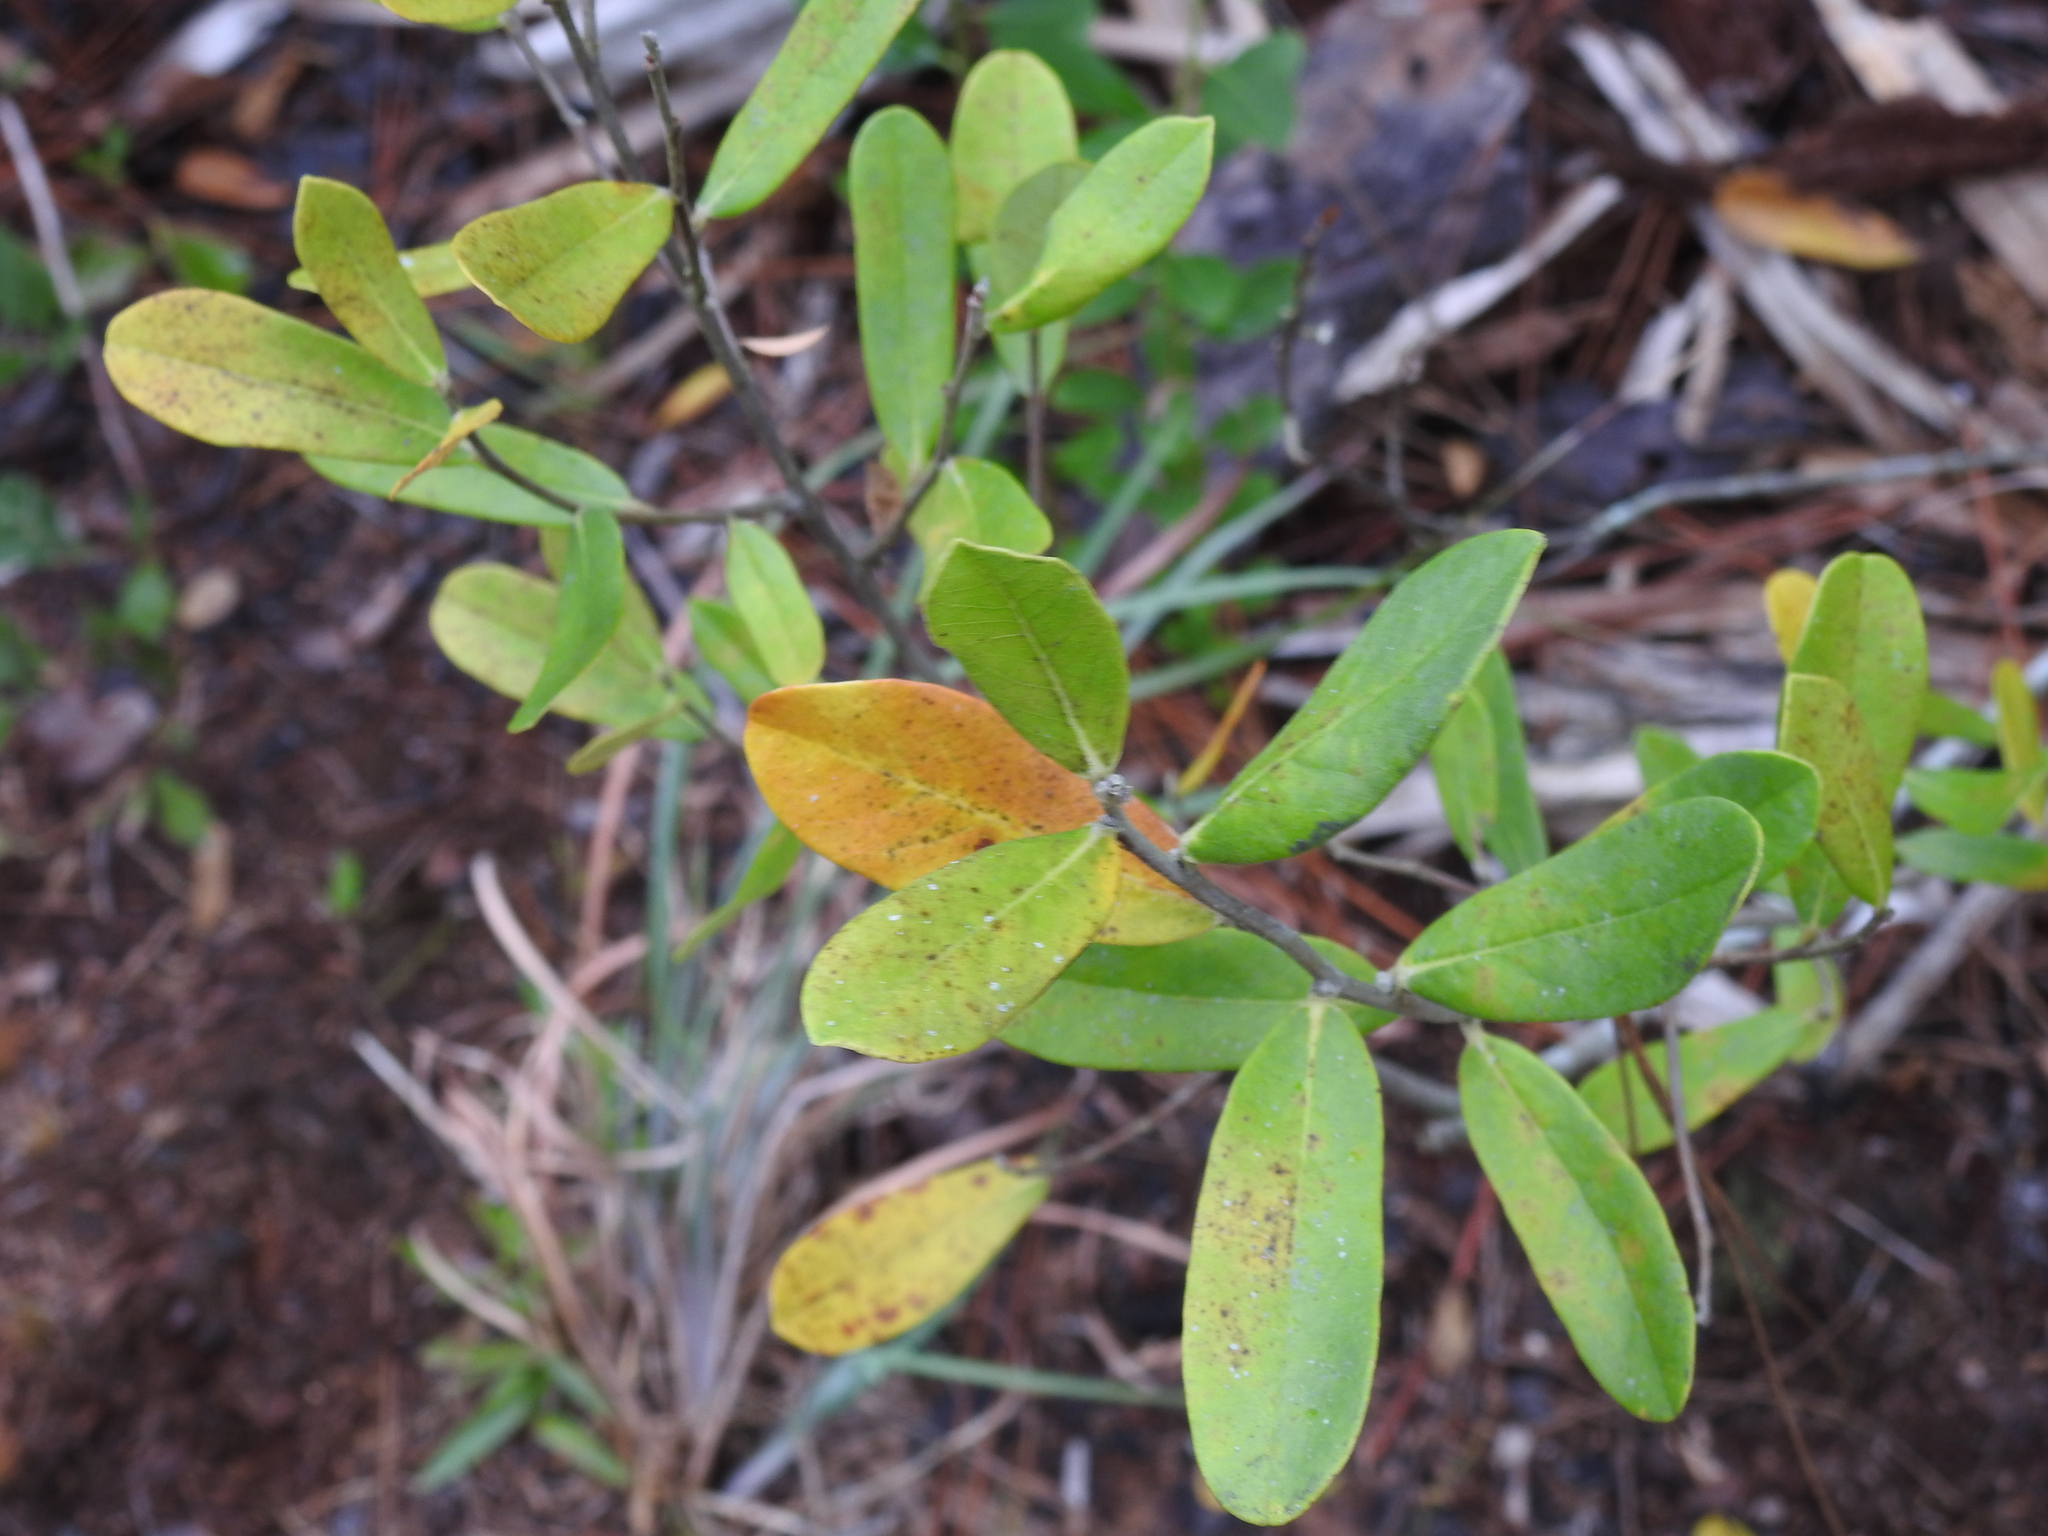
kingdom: Plantae
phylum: Tracheophyta
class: Magnoliopsida
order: Magnoliales
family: Annonaceae
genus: Asimina
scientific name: Asimina reticulata
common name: Flag pawpaw
